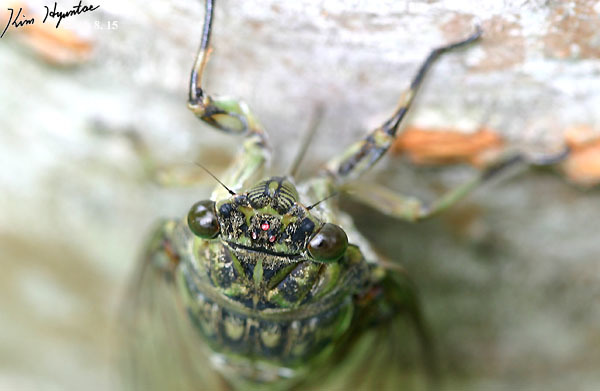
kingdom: Animalia
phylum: Arthropoda
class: Insecta
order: Hemiptera
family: Cicadidae
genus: Hyalessa
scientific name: Hyalessa maculaticollis
